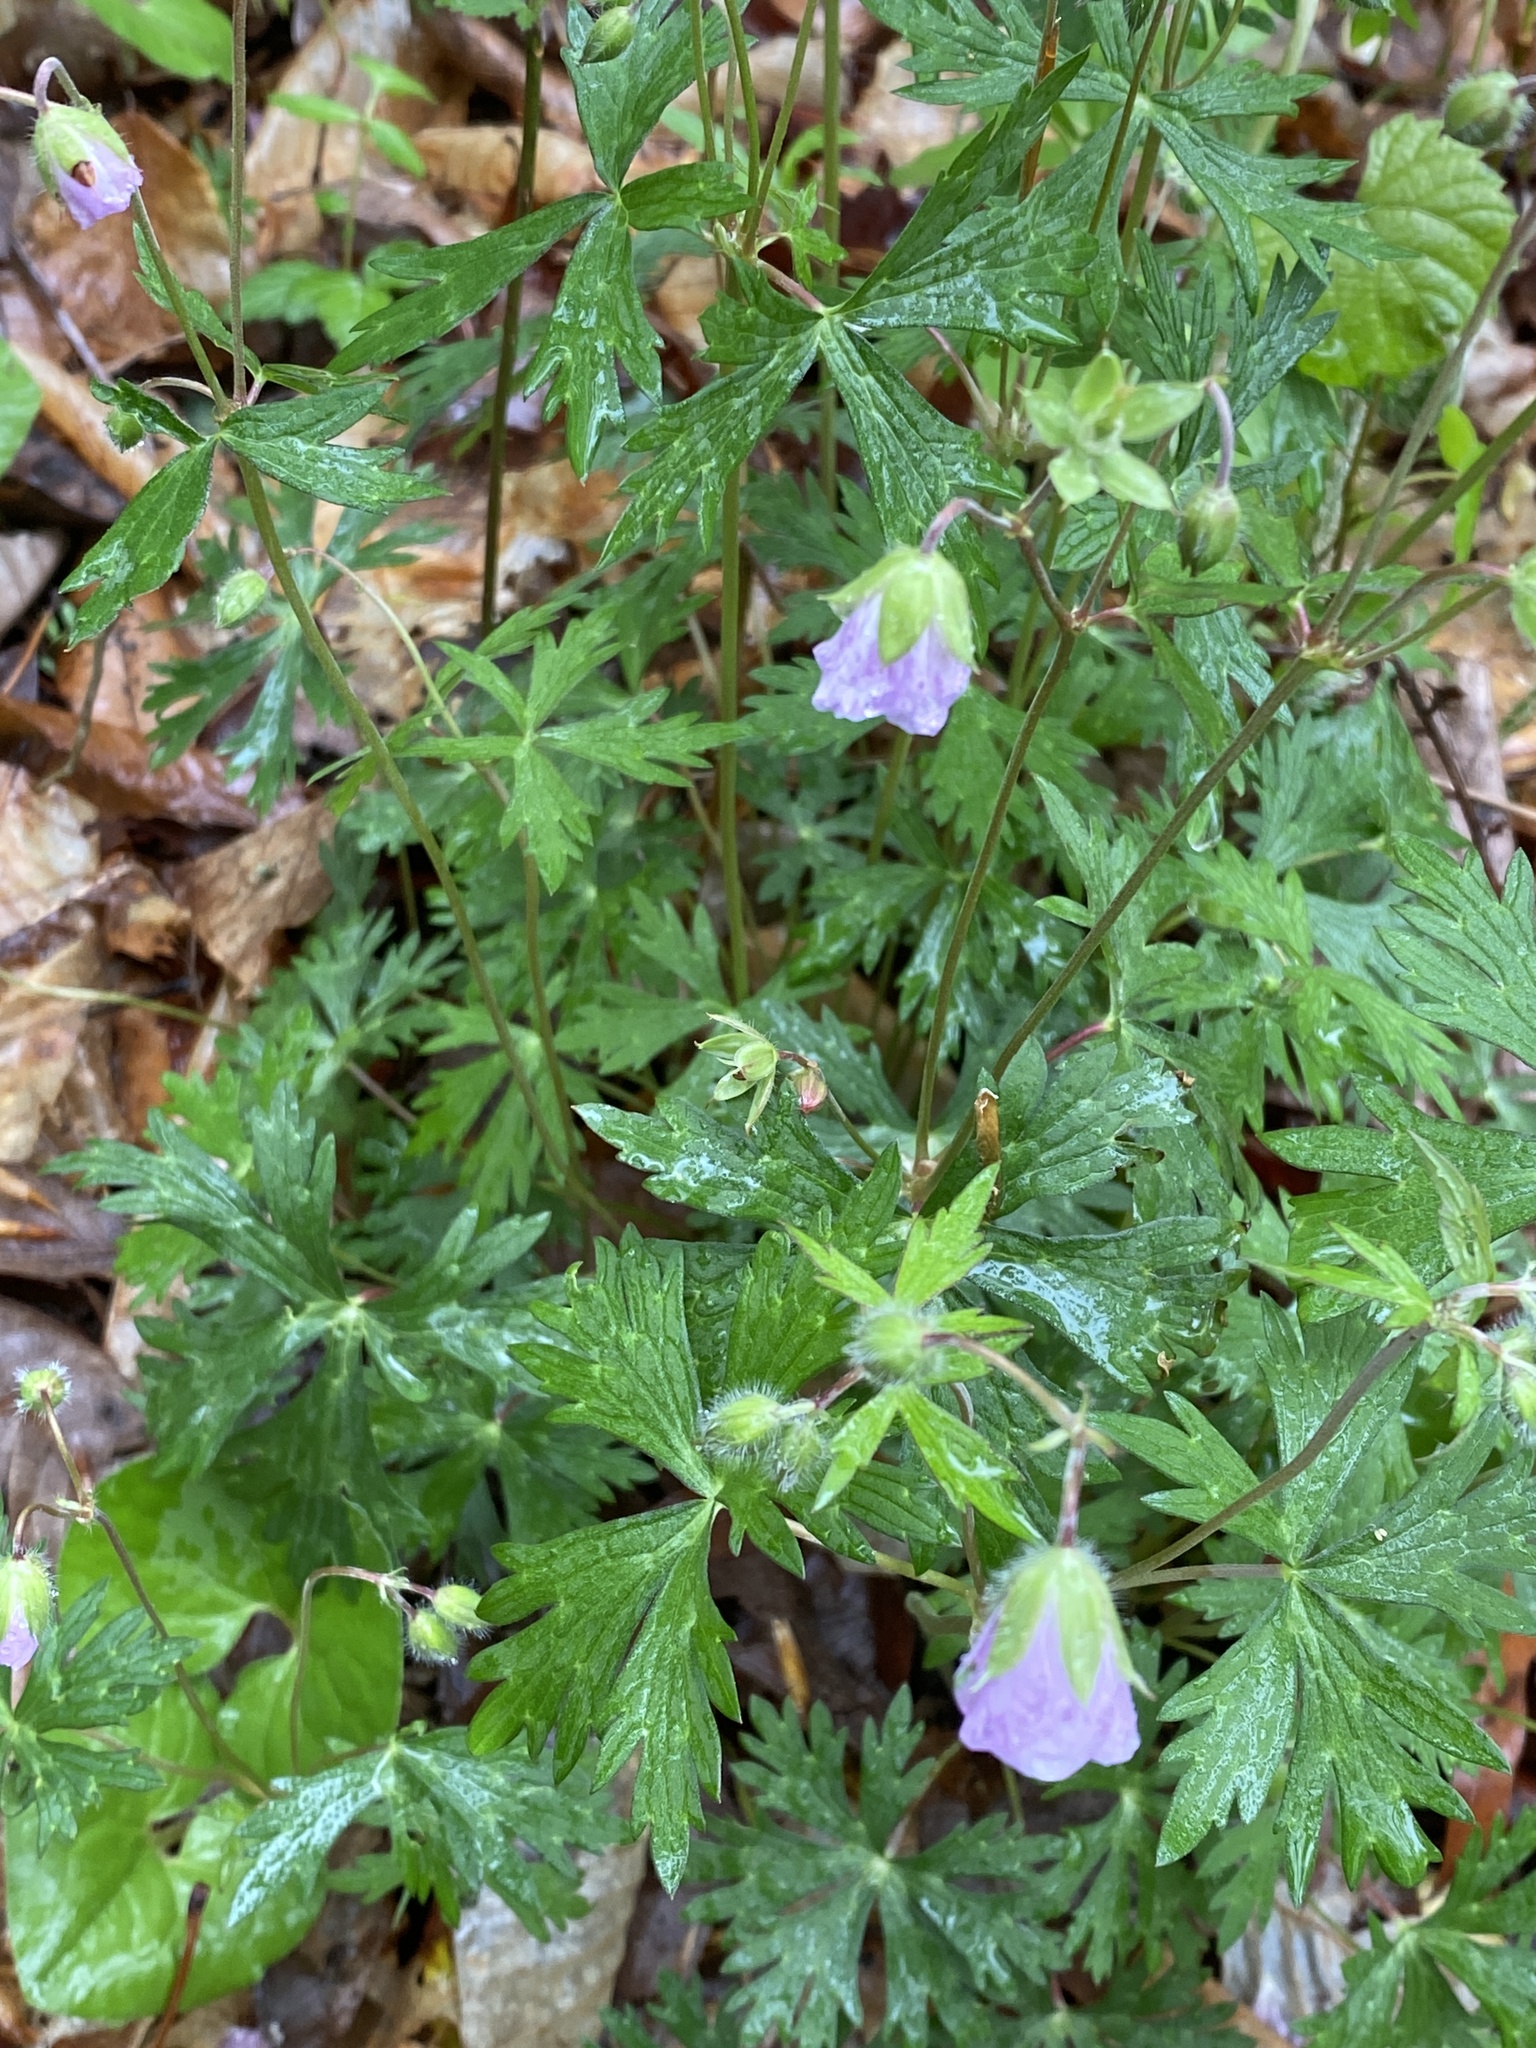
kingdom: Plantae
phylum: Tracheophyta
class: Magnoliopsida
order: Geraniales
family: Geraniaceae
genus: Geranium
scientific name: Geranium maculatum
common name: Spotted geranium
